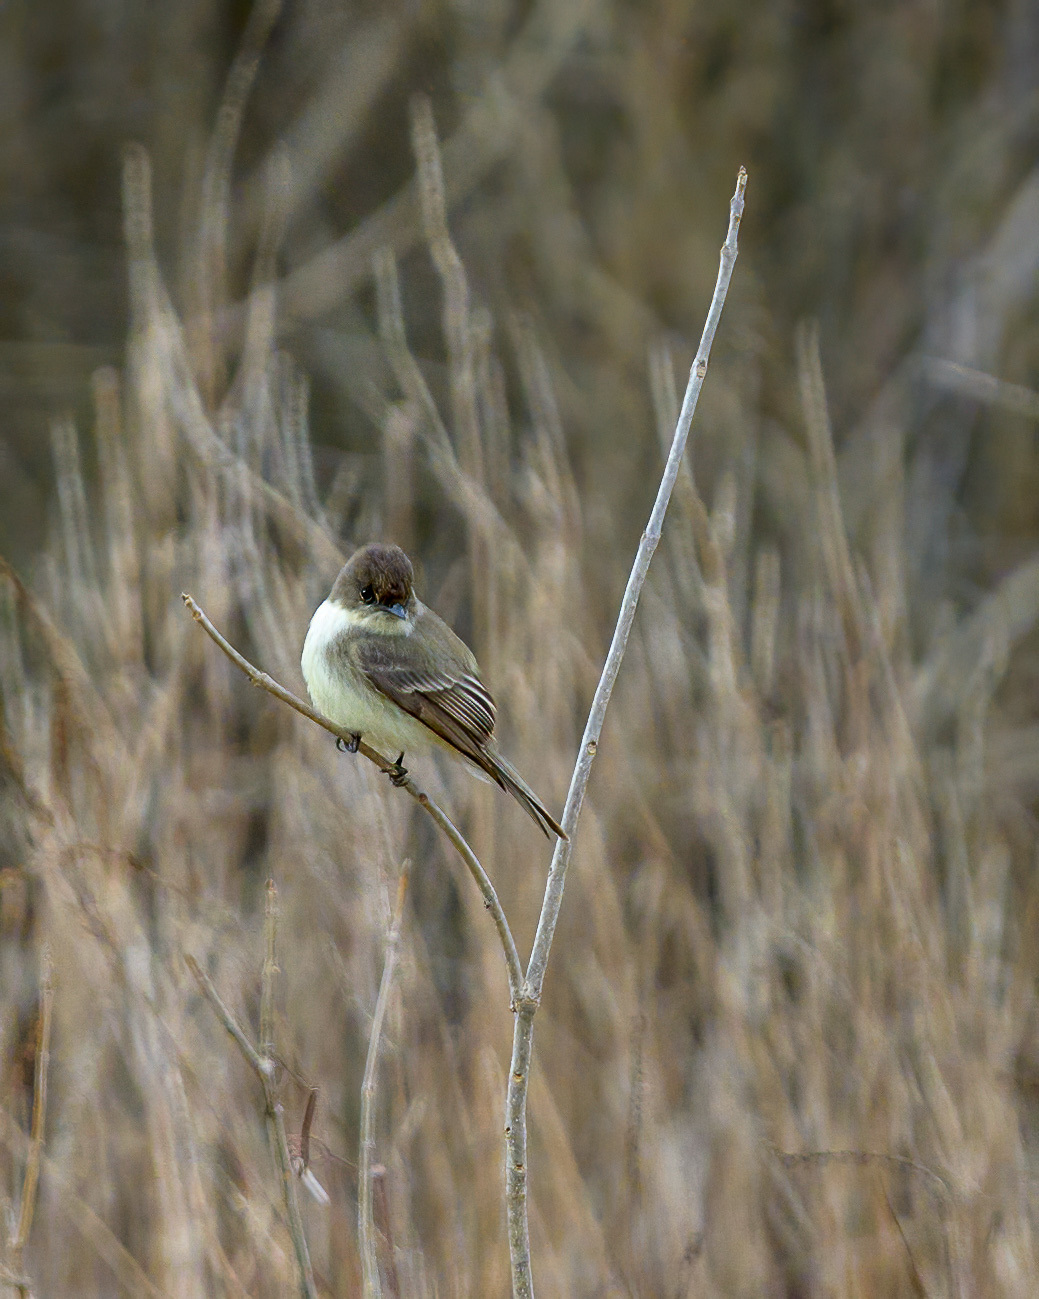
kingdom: Animalia
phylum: Chordata
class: Aves
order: Passeriformes
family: Tyrannidae
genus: Sayornis
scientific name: Sayornis phoebe
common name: Eastern phoebe
